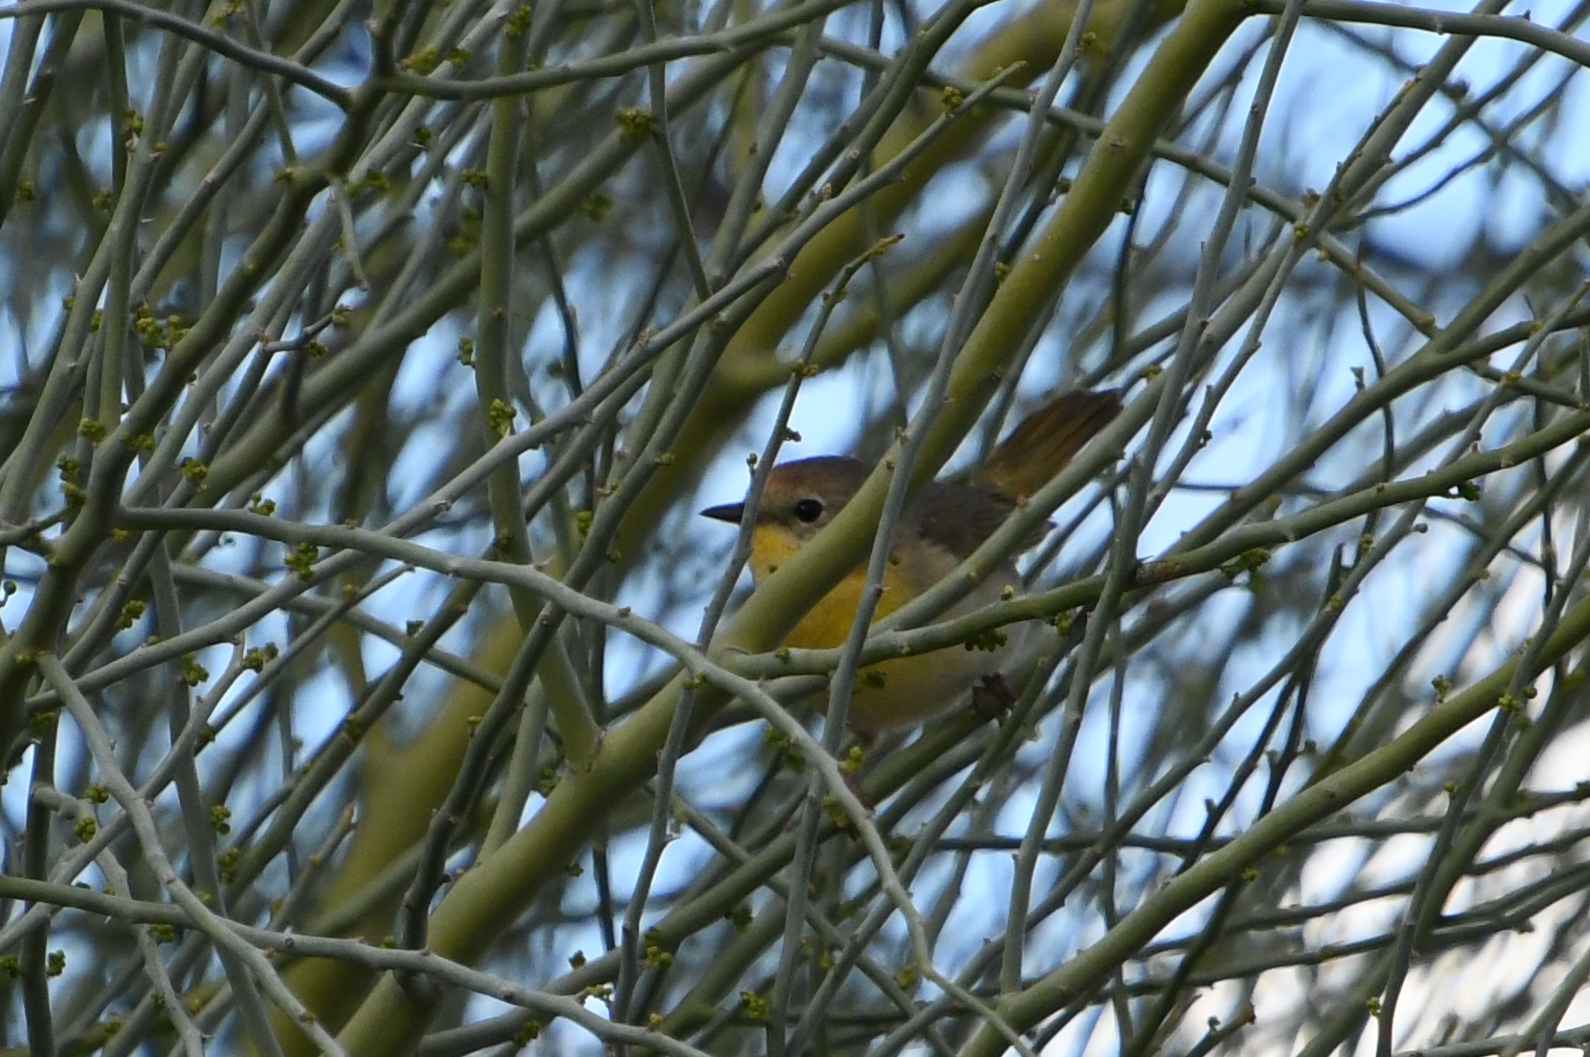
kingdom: Animalia
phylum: Chordata
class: Aves
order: Passeriformes
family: Parulidae
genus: Geothlypis
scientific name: Geothlypis trichas
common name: Common yellowthroat
